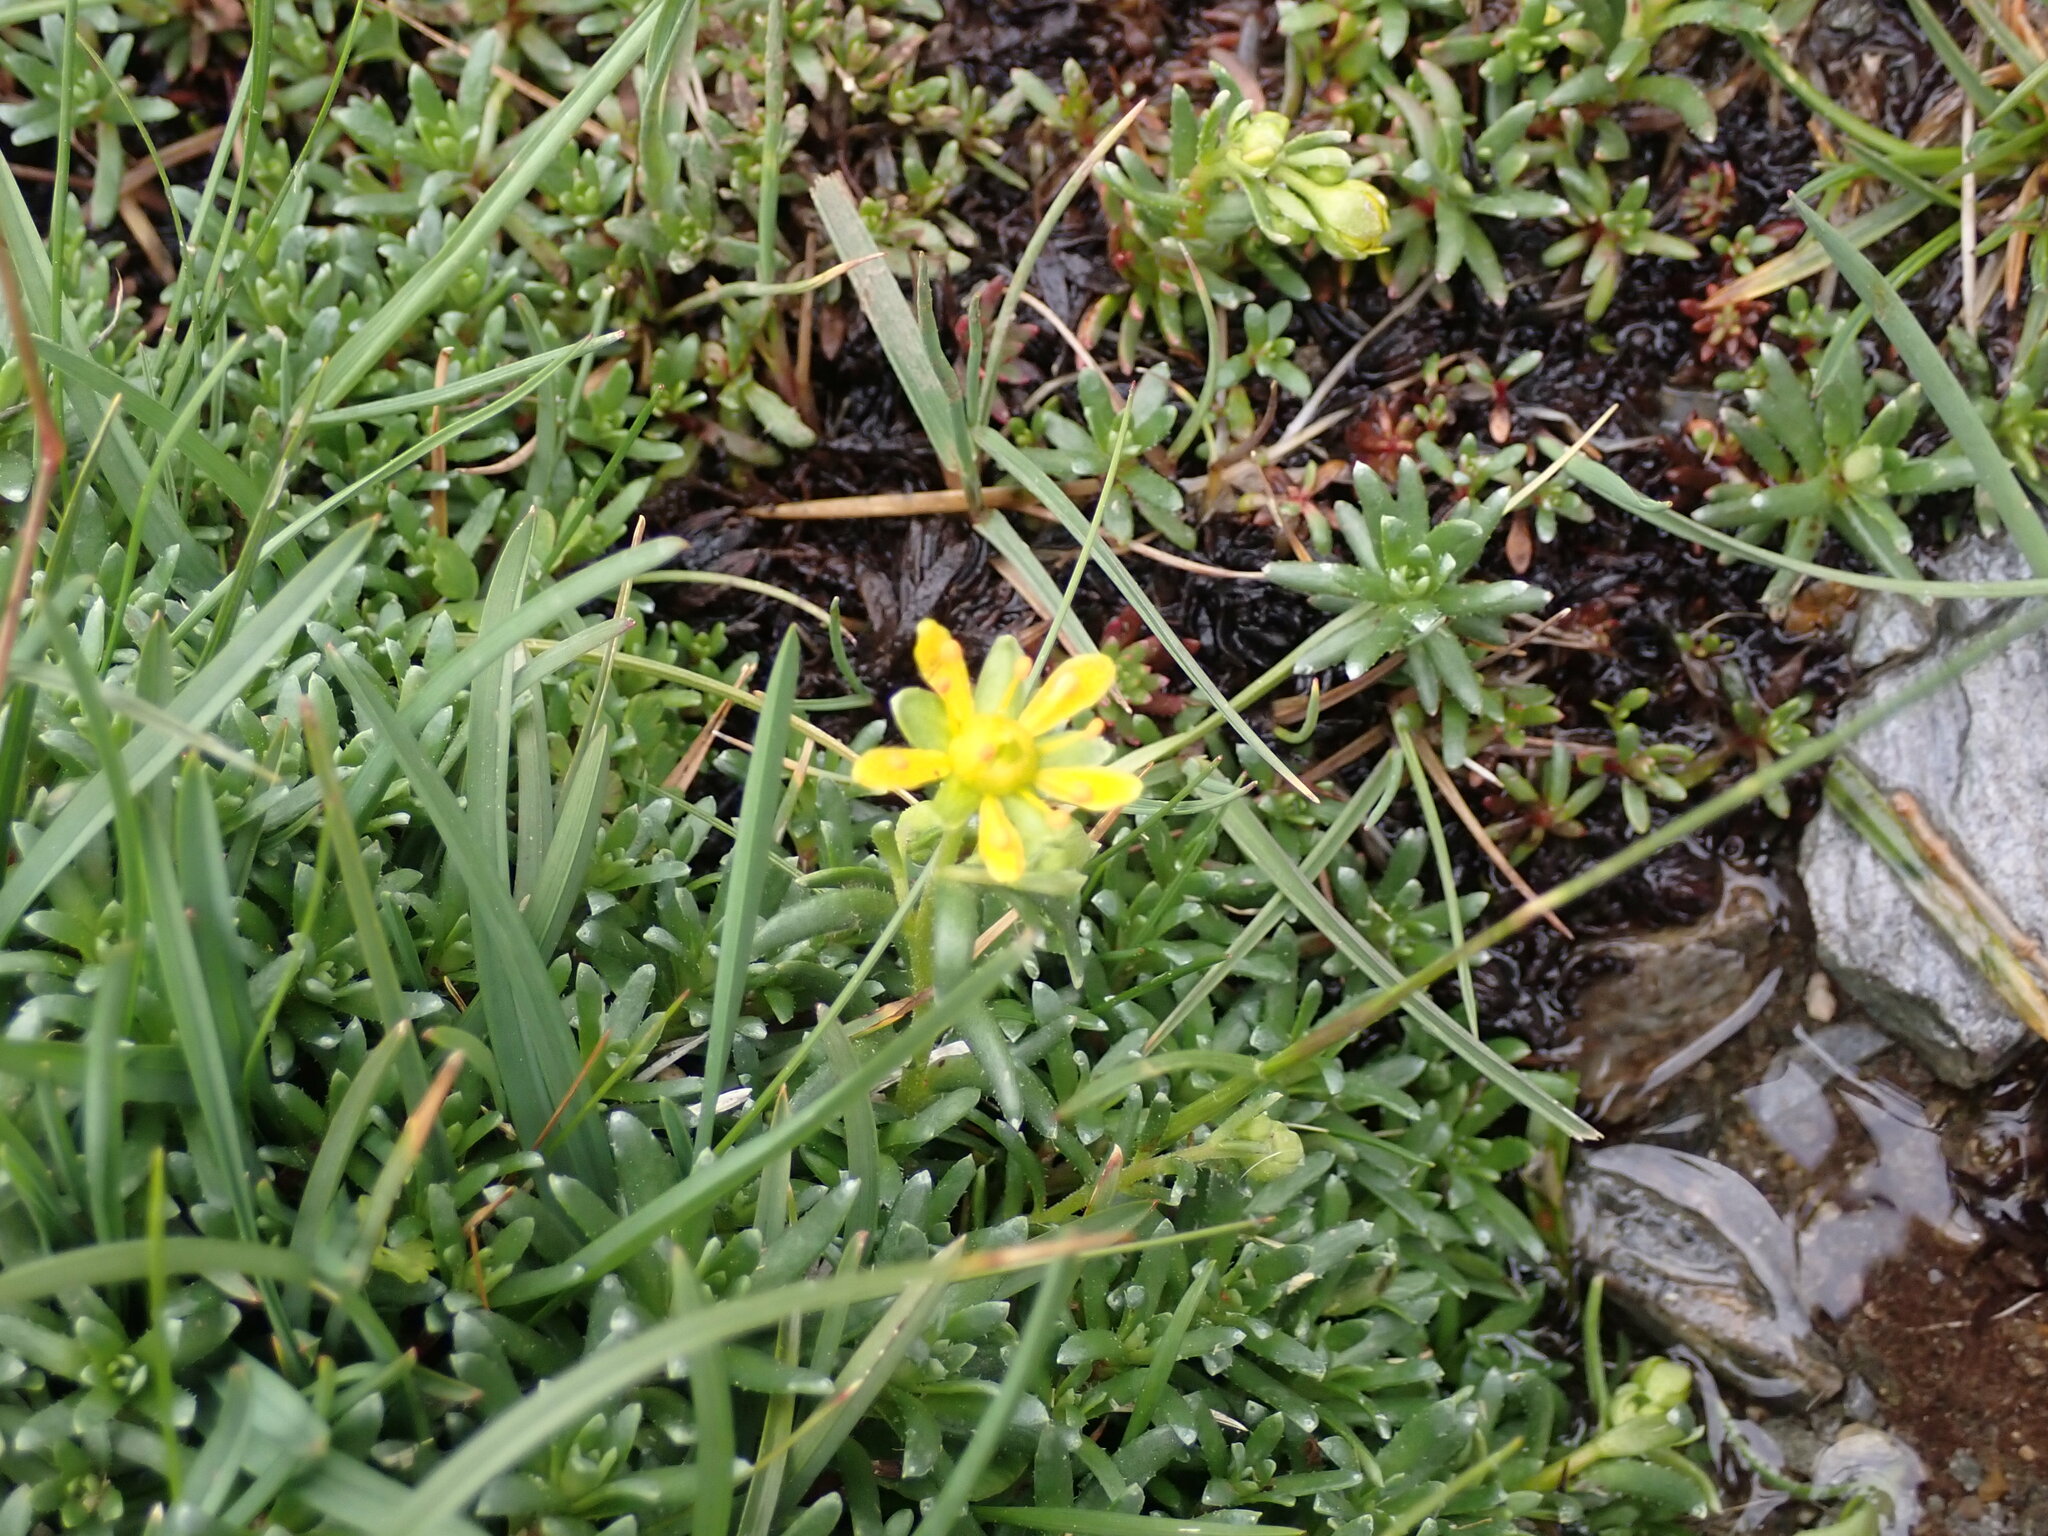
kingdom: Plantae
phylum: Tracheophyta
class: Magnoliopsida
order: Saxifragales
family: Saxifragaceae
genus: Saxifraga
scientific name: Saxifraga aizoides
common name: Yellow mountain saxifrage
